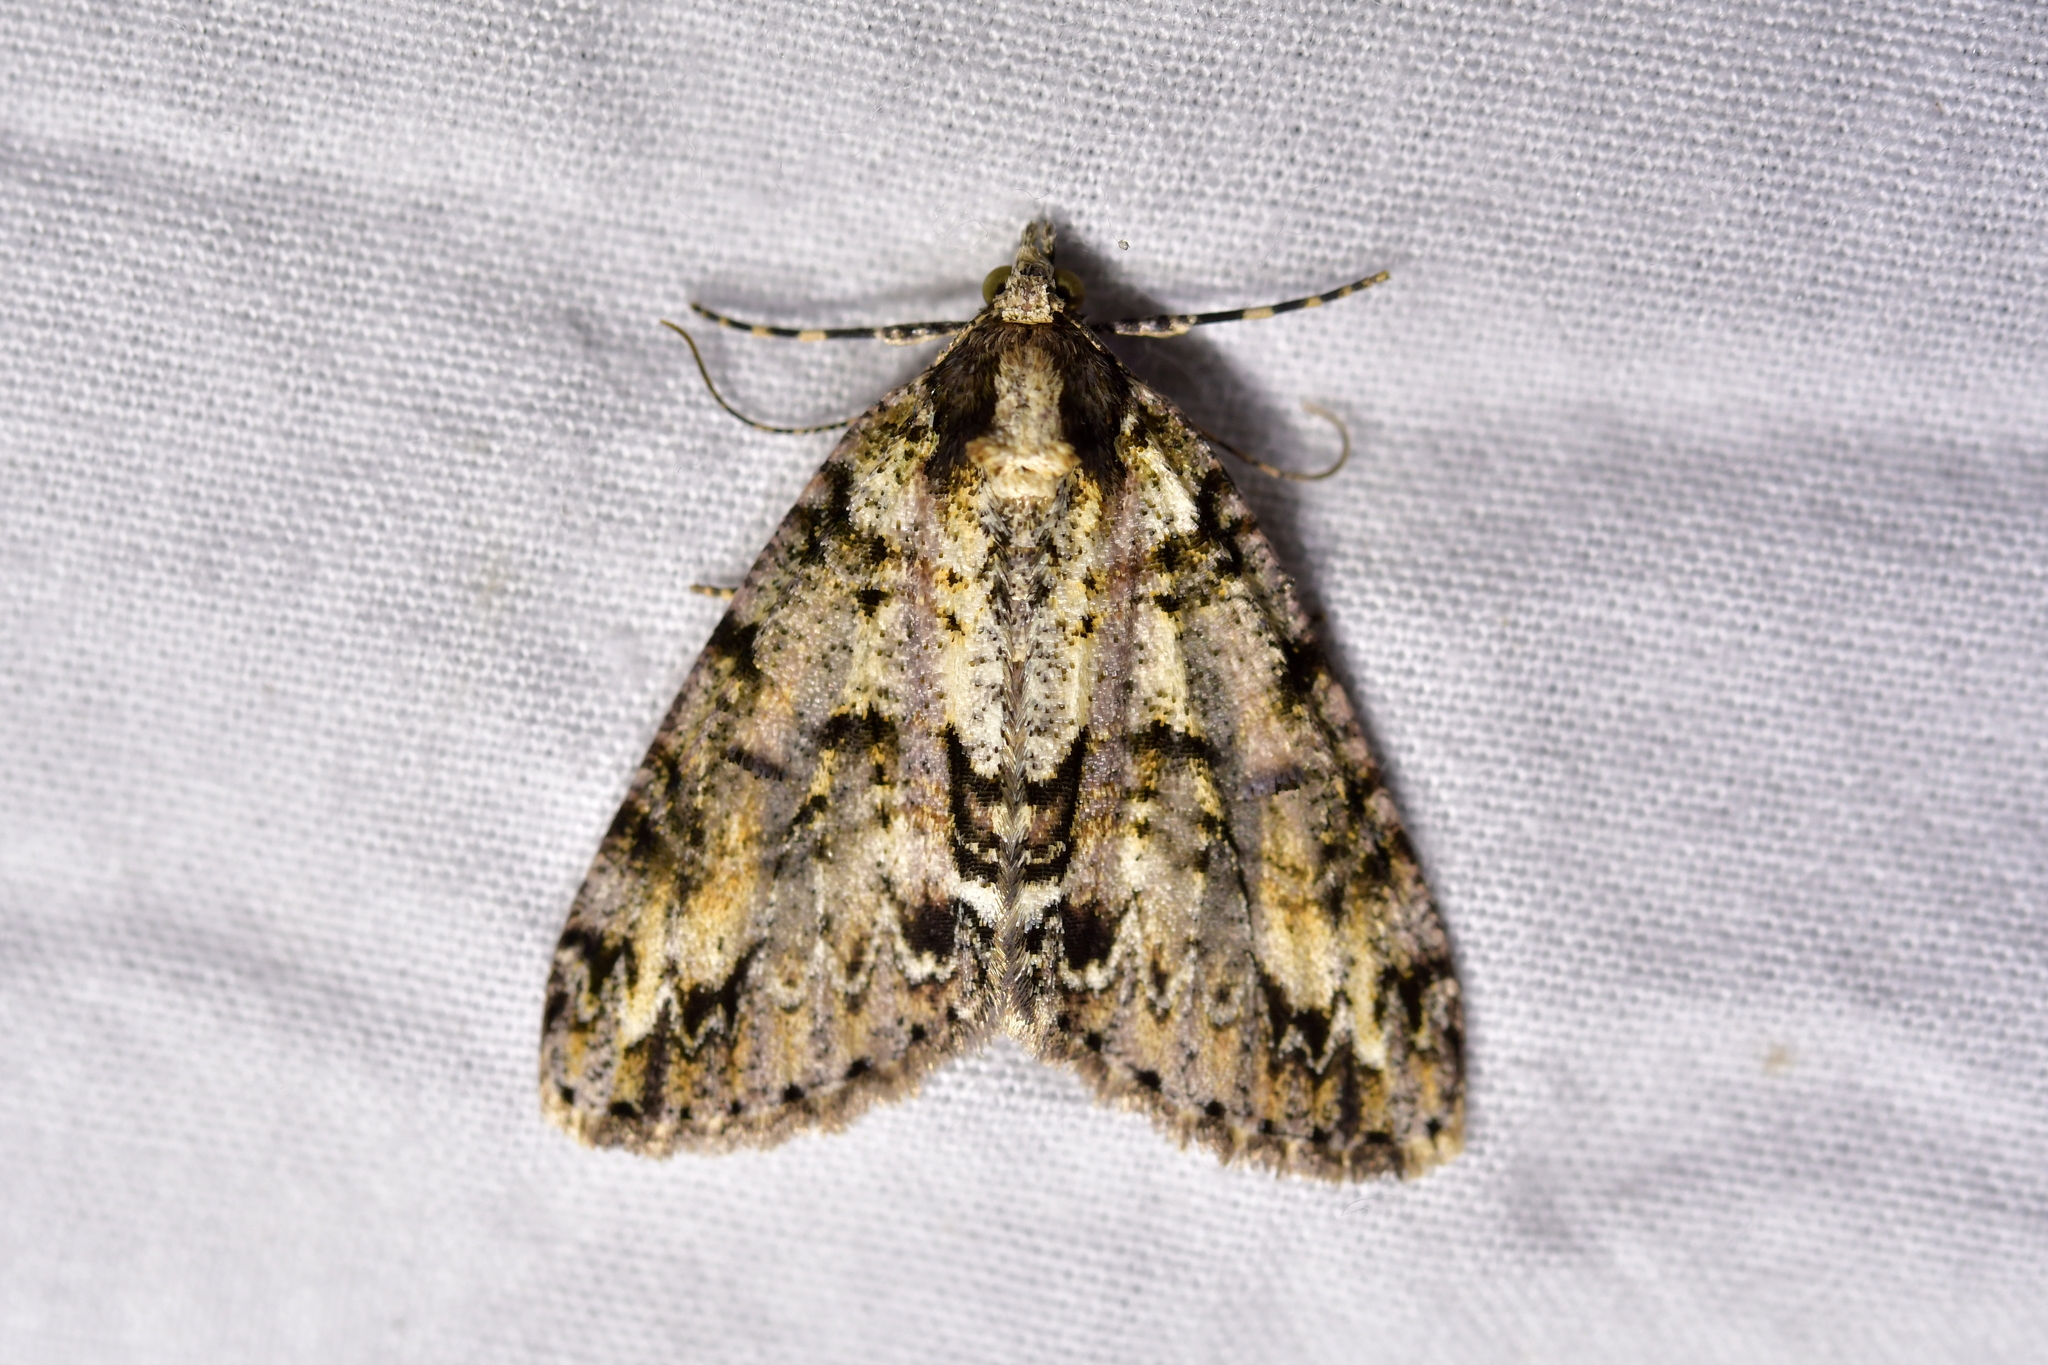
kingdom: Animalia
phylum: Arthropoda
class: Insecta
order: Lepidoptera
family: Geometridae
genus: Pseudocoremia
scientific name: Pseudocoremia suavis
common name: Common forest looper
